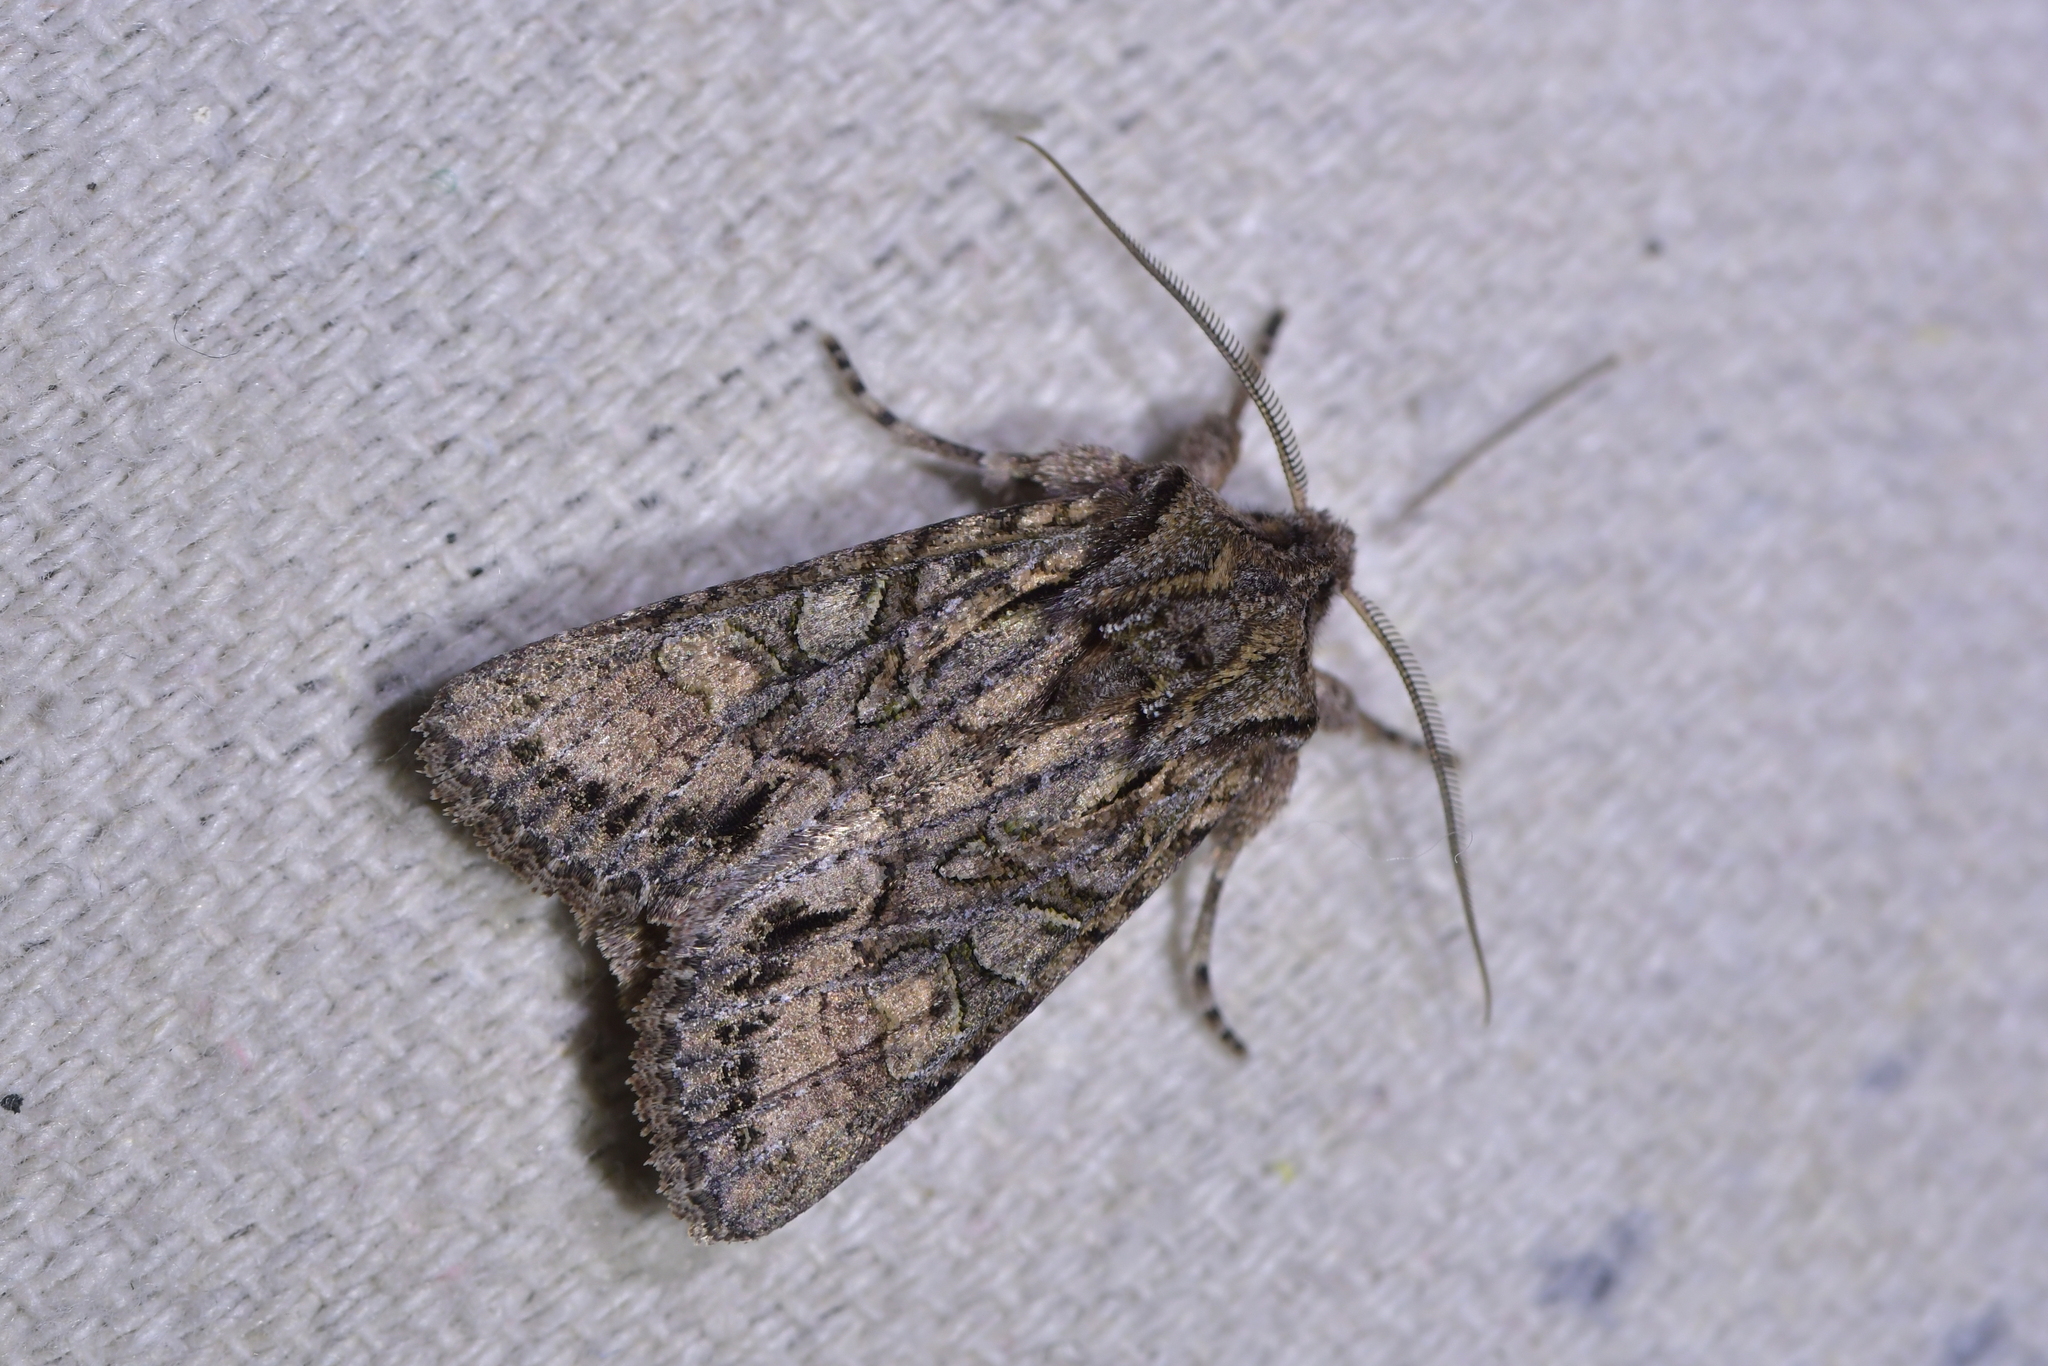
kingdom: Animalia
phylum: Arthropoda
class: Insecta
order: Lepidoptera
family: Noctuidae
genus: Ichneutica
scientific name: Ichneutica mutans
